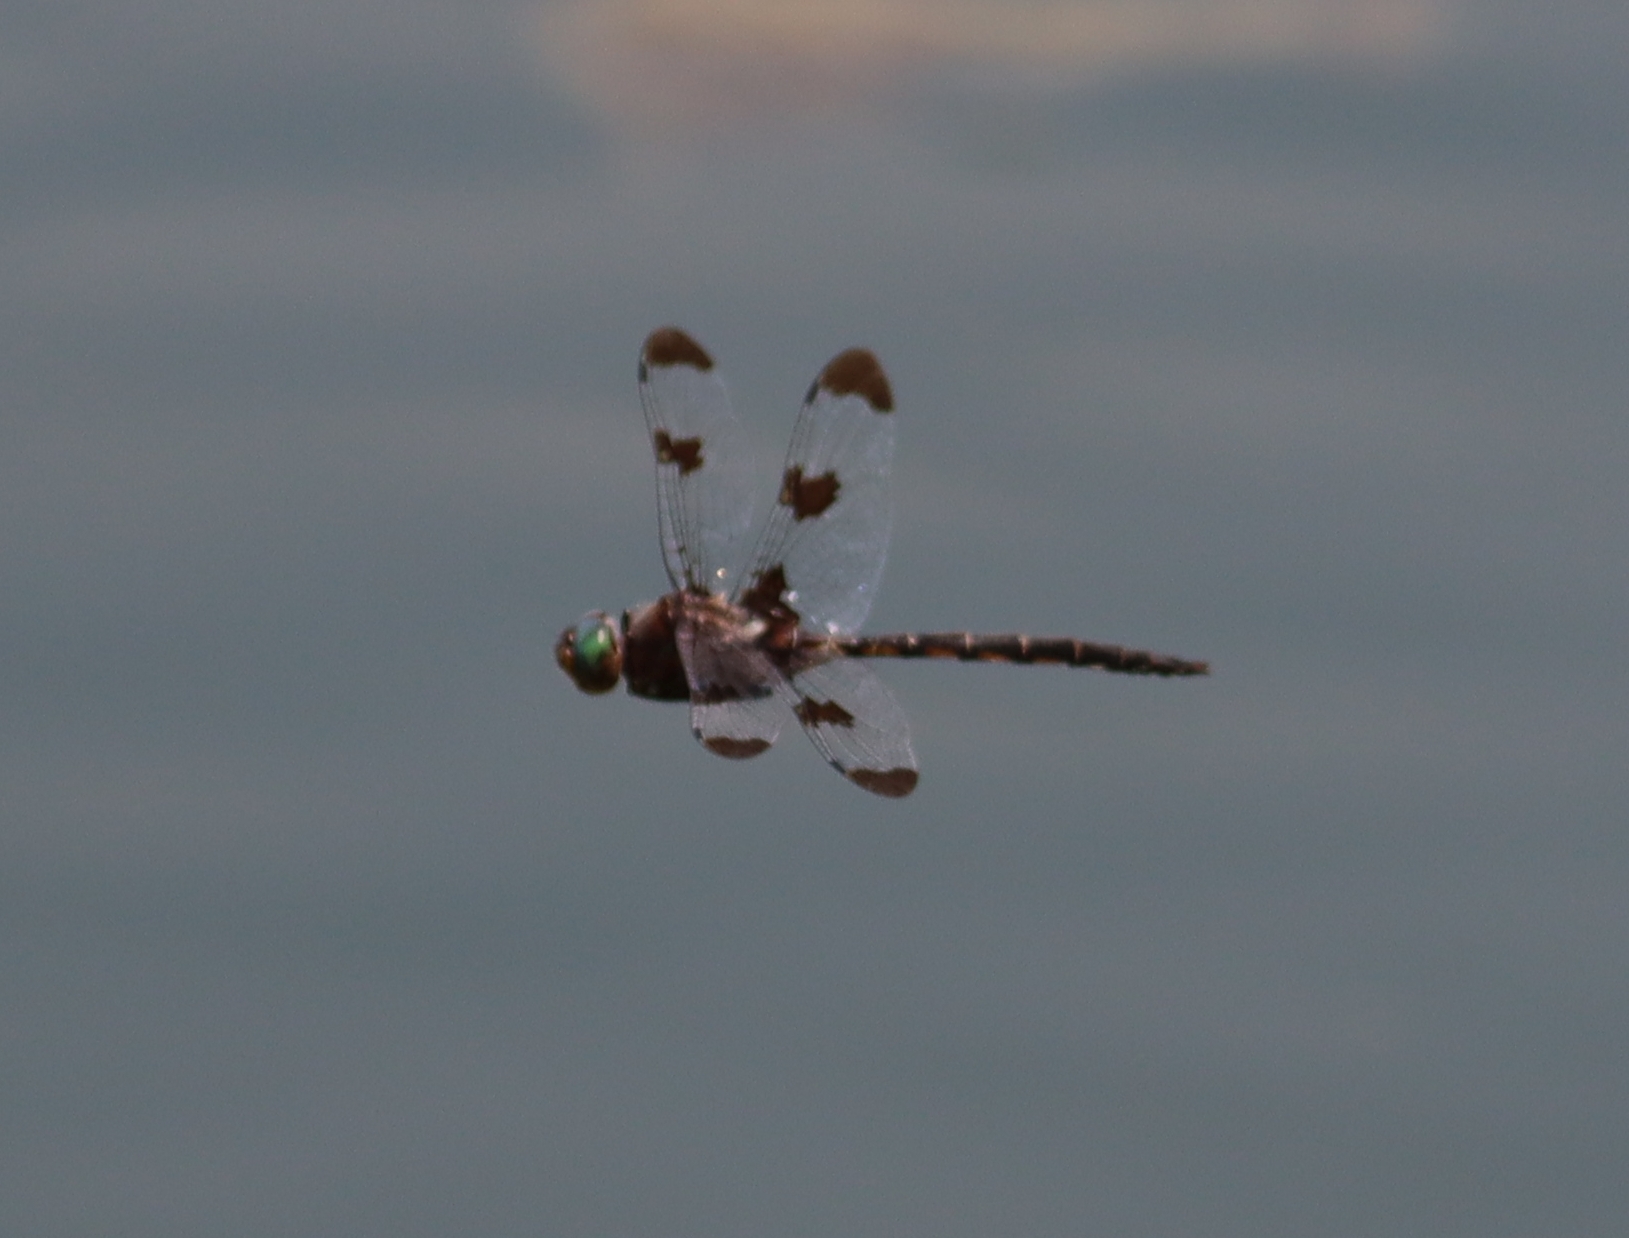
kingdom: Animalia
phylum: Arthropoda
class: Insecta
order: Odonata
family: Corduliidae
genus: Epitheca
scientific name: Epitheca princeps
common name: Prince baskettail
